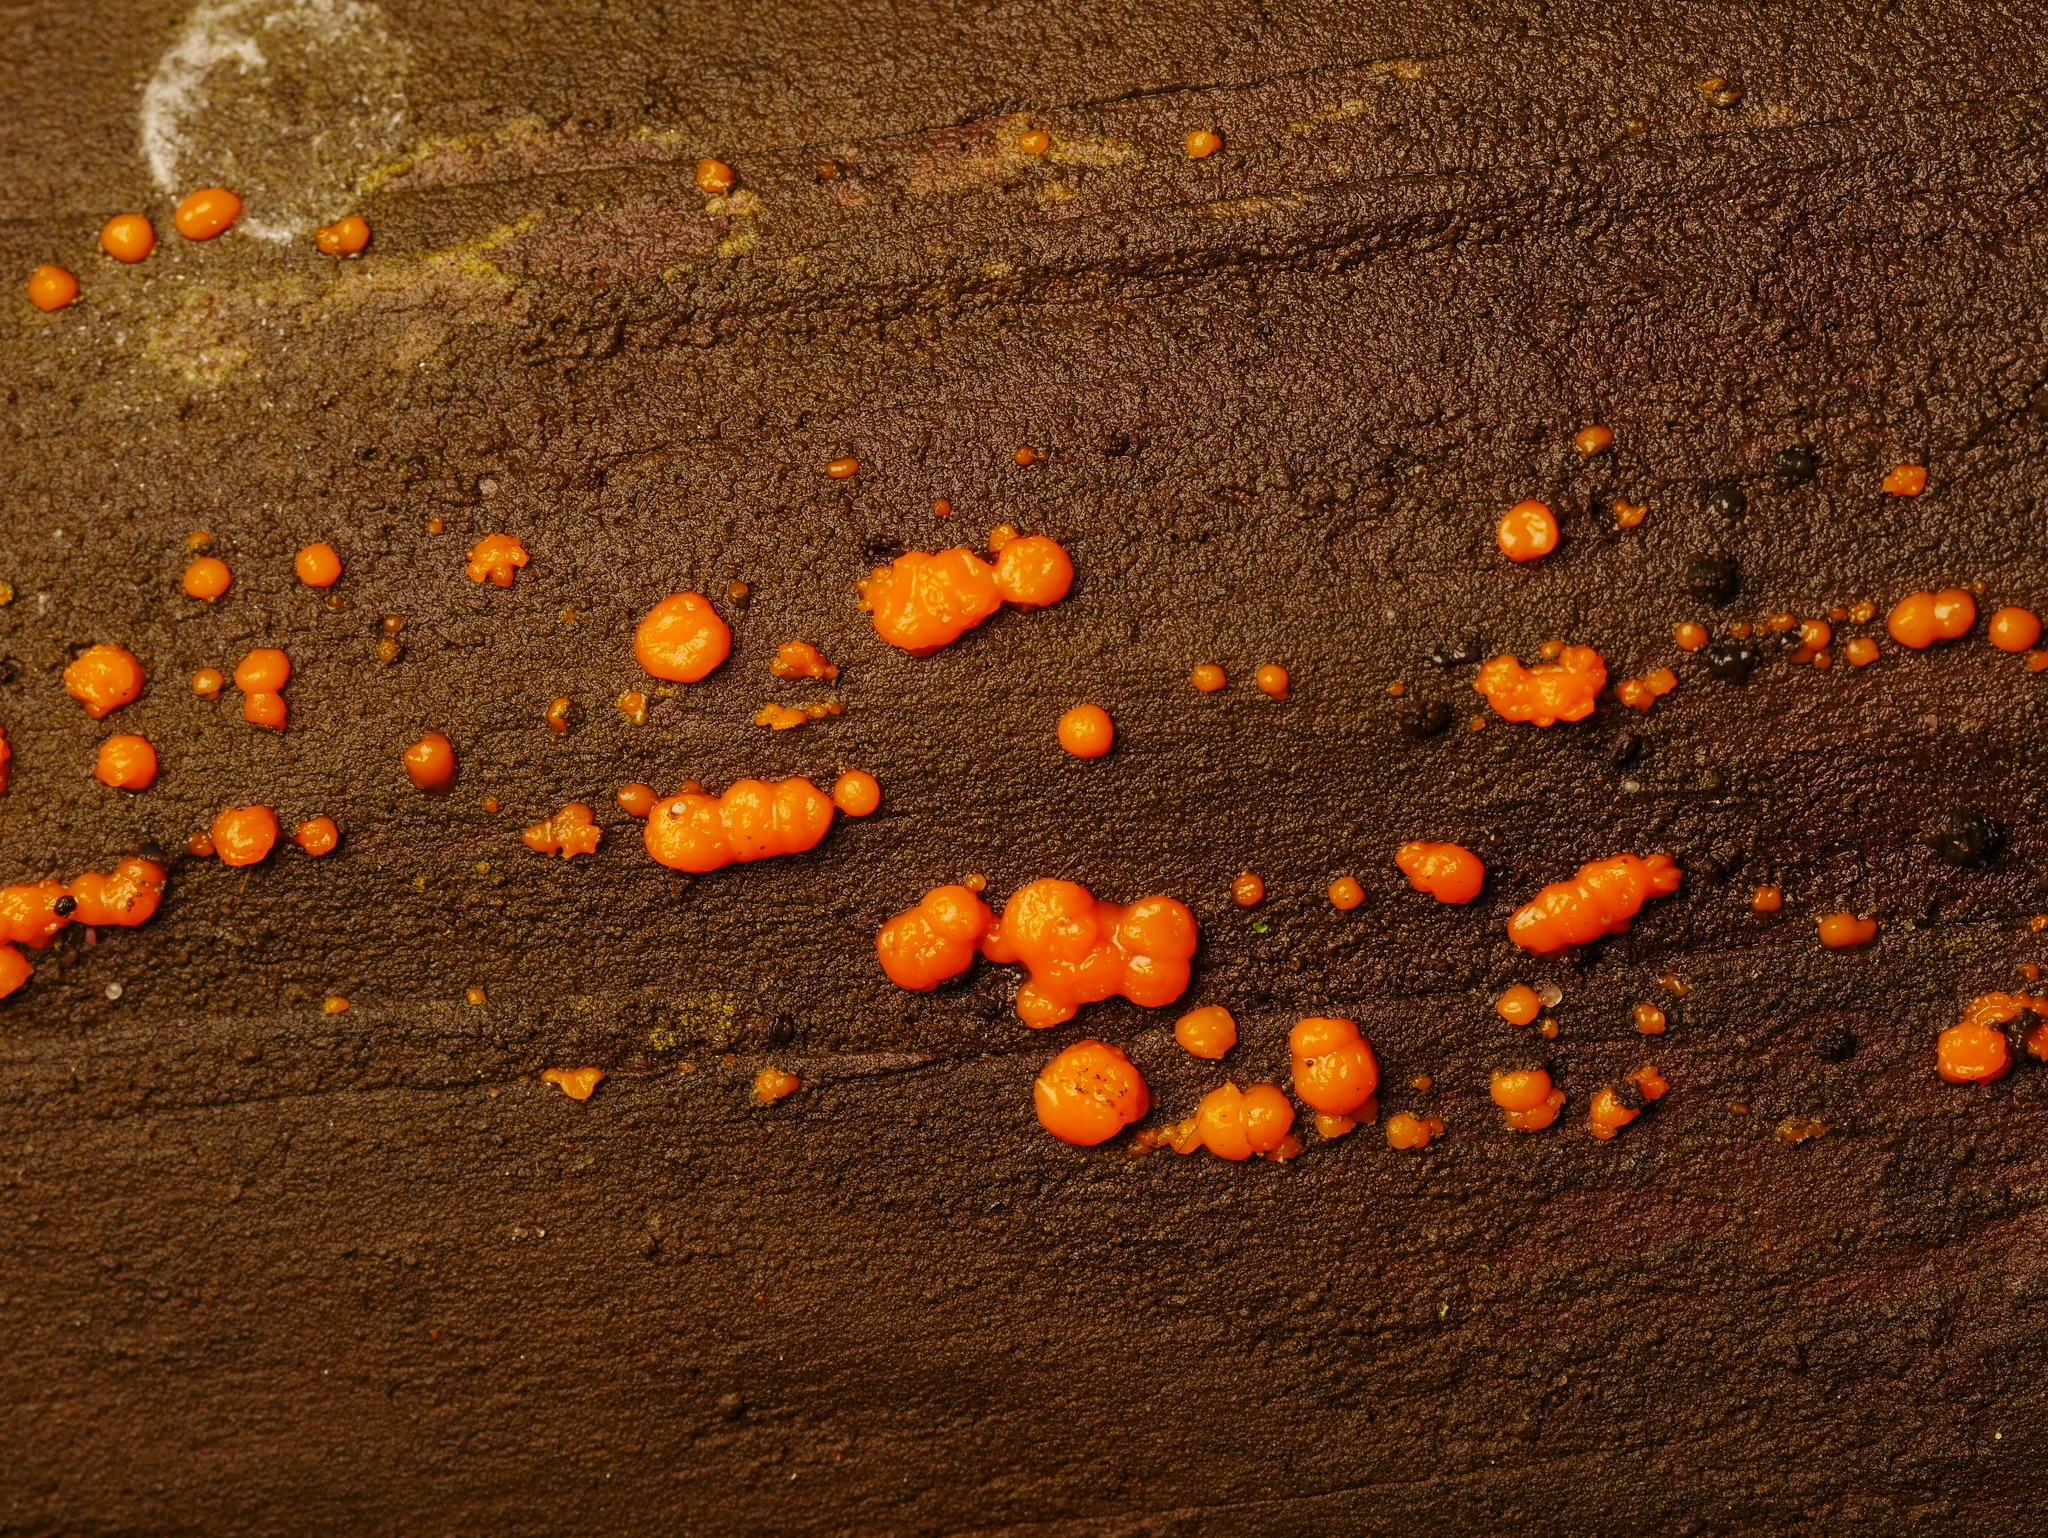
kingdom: Fungi
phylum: Basidiomycota
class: Dacrymycetes
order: Dacrymycetales
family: Dacrymycetaceae
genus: Dacrymyces
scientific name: Dacrymyces stillatus
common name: Common jelly spot
